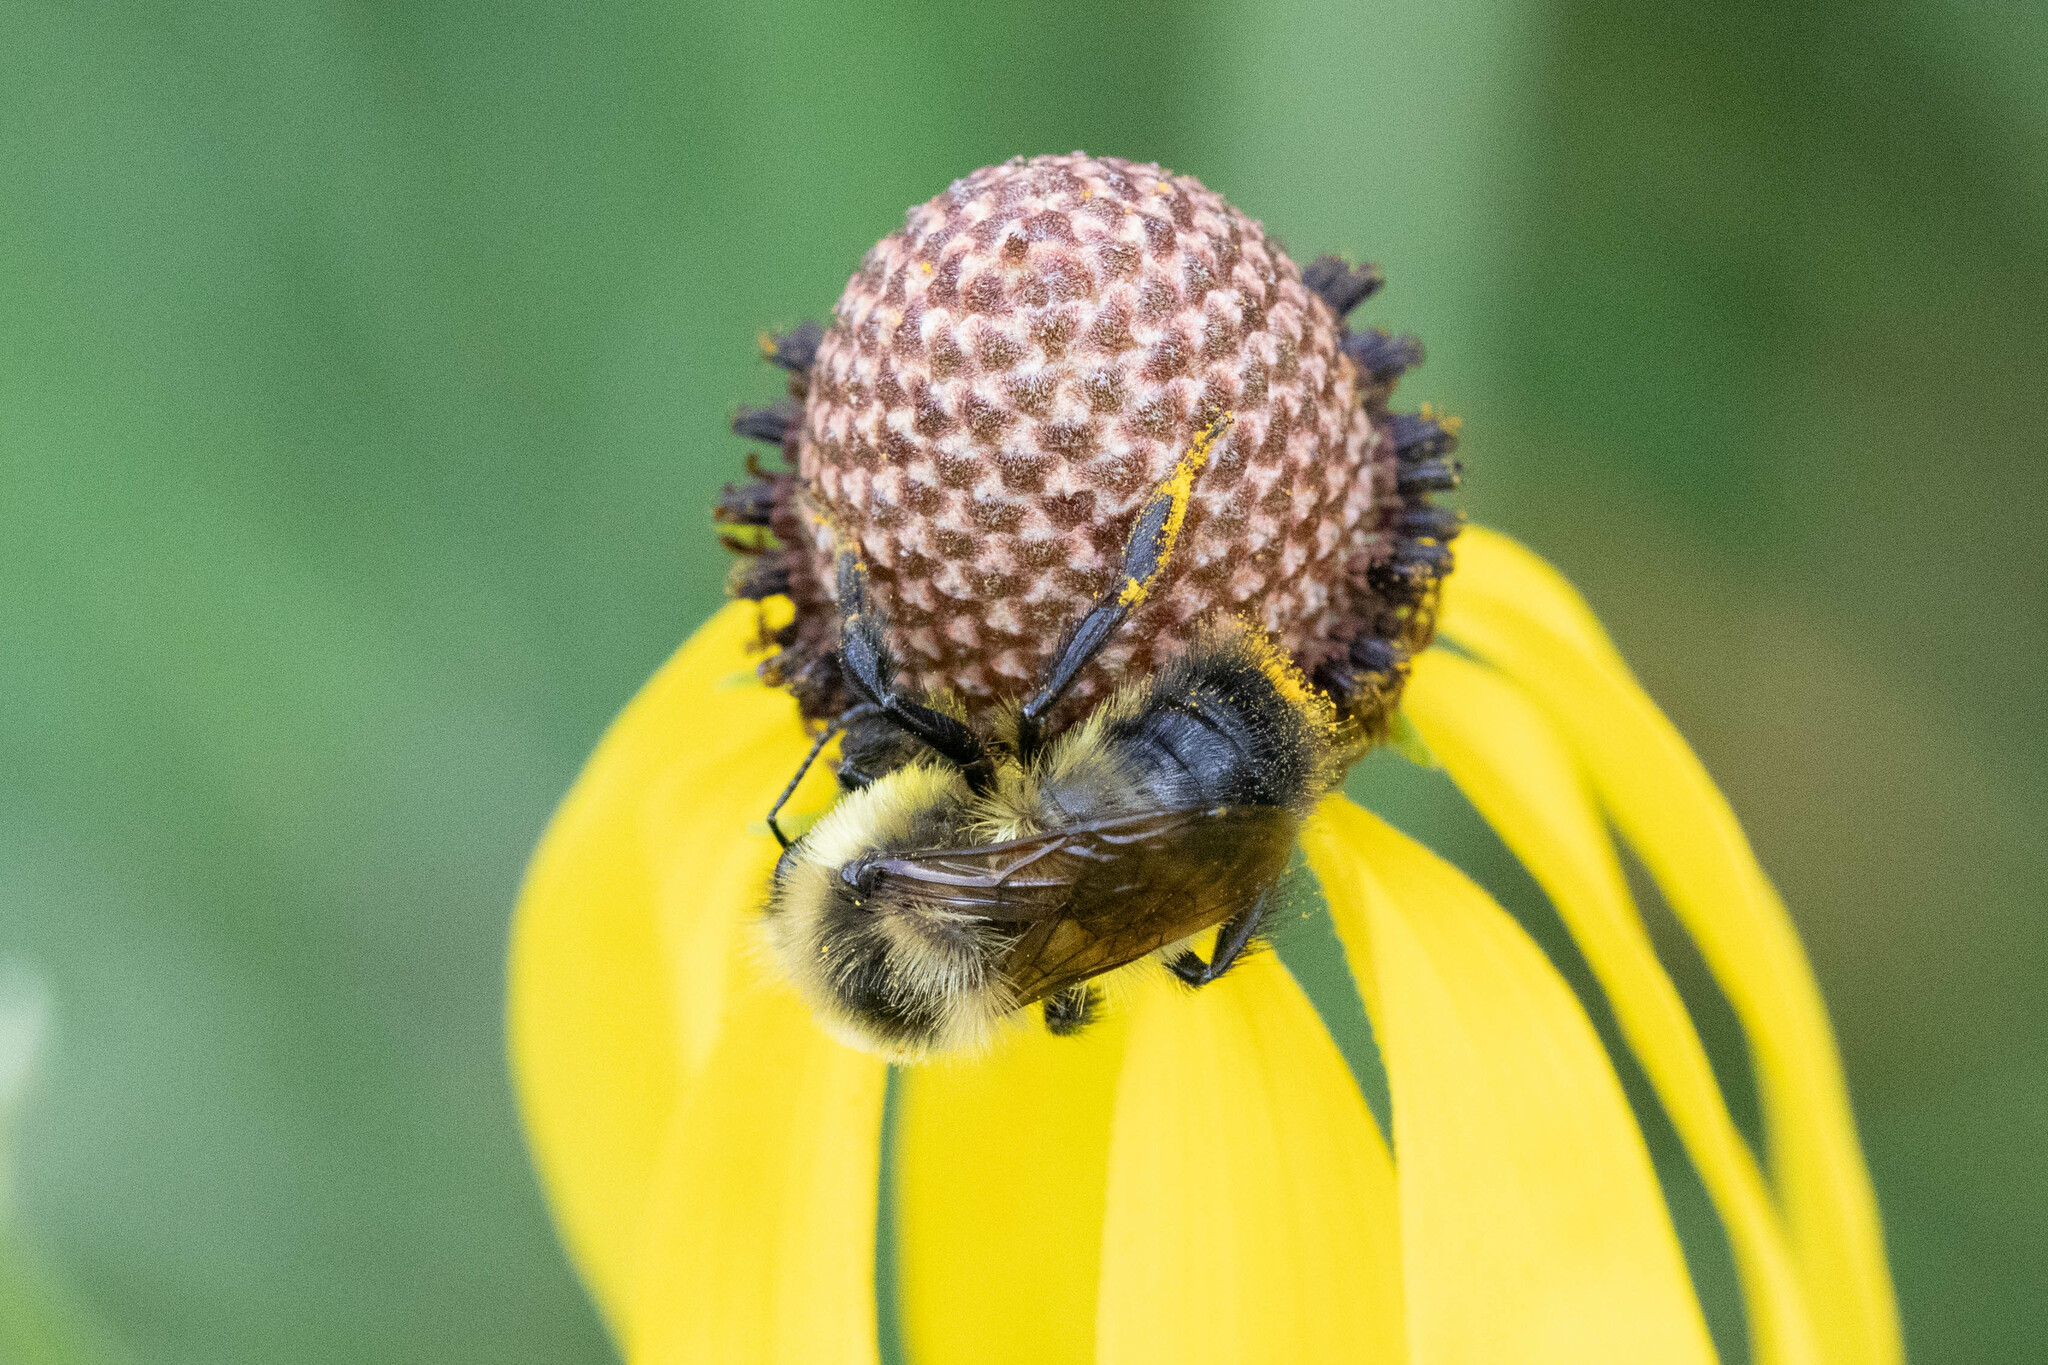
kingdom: Animalia
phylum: Arthropoda
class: Insecta
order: Hymenoptera
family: Apidae
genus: Bombus
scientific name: Bombus rufocinctus
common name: Red-belted bumble bee
